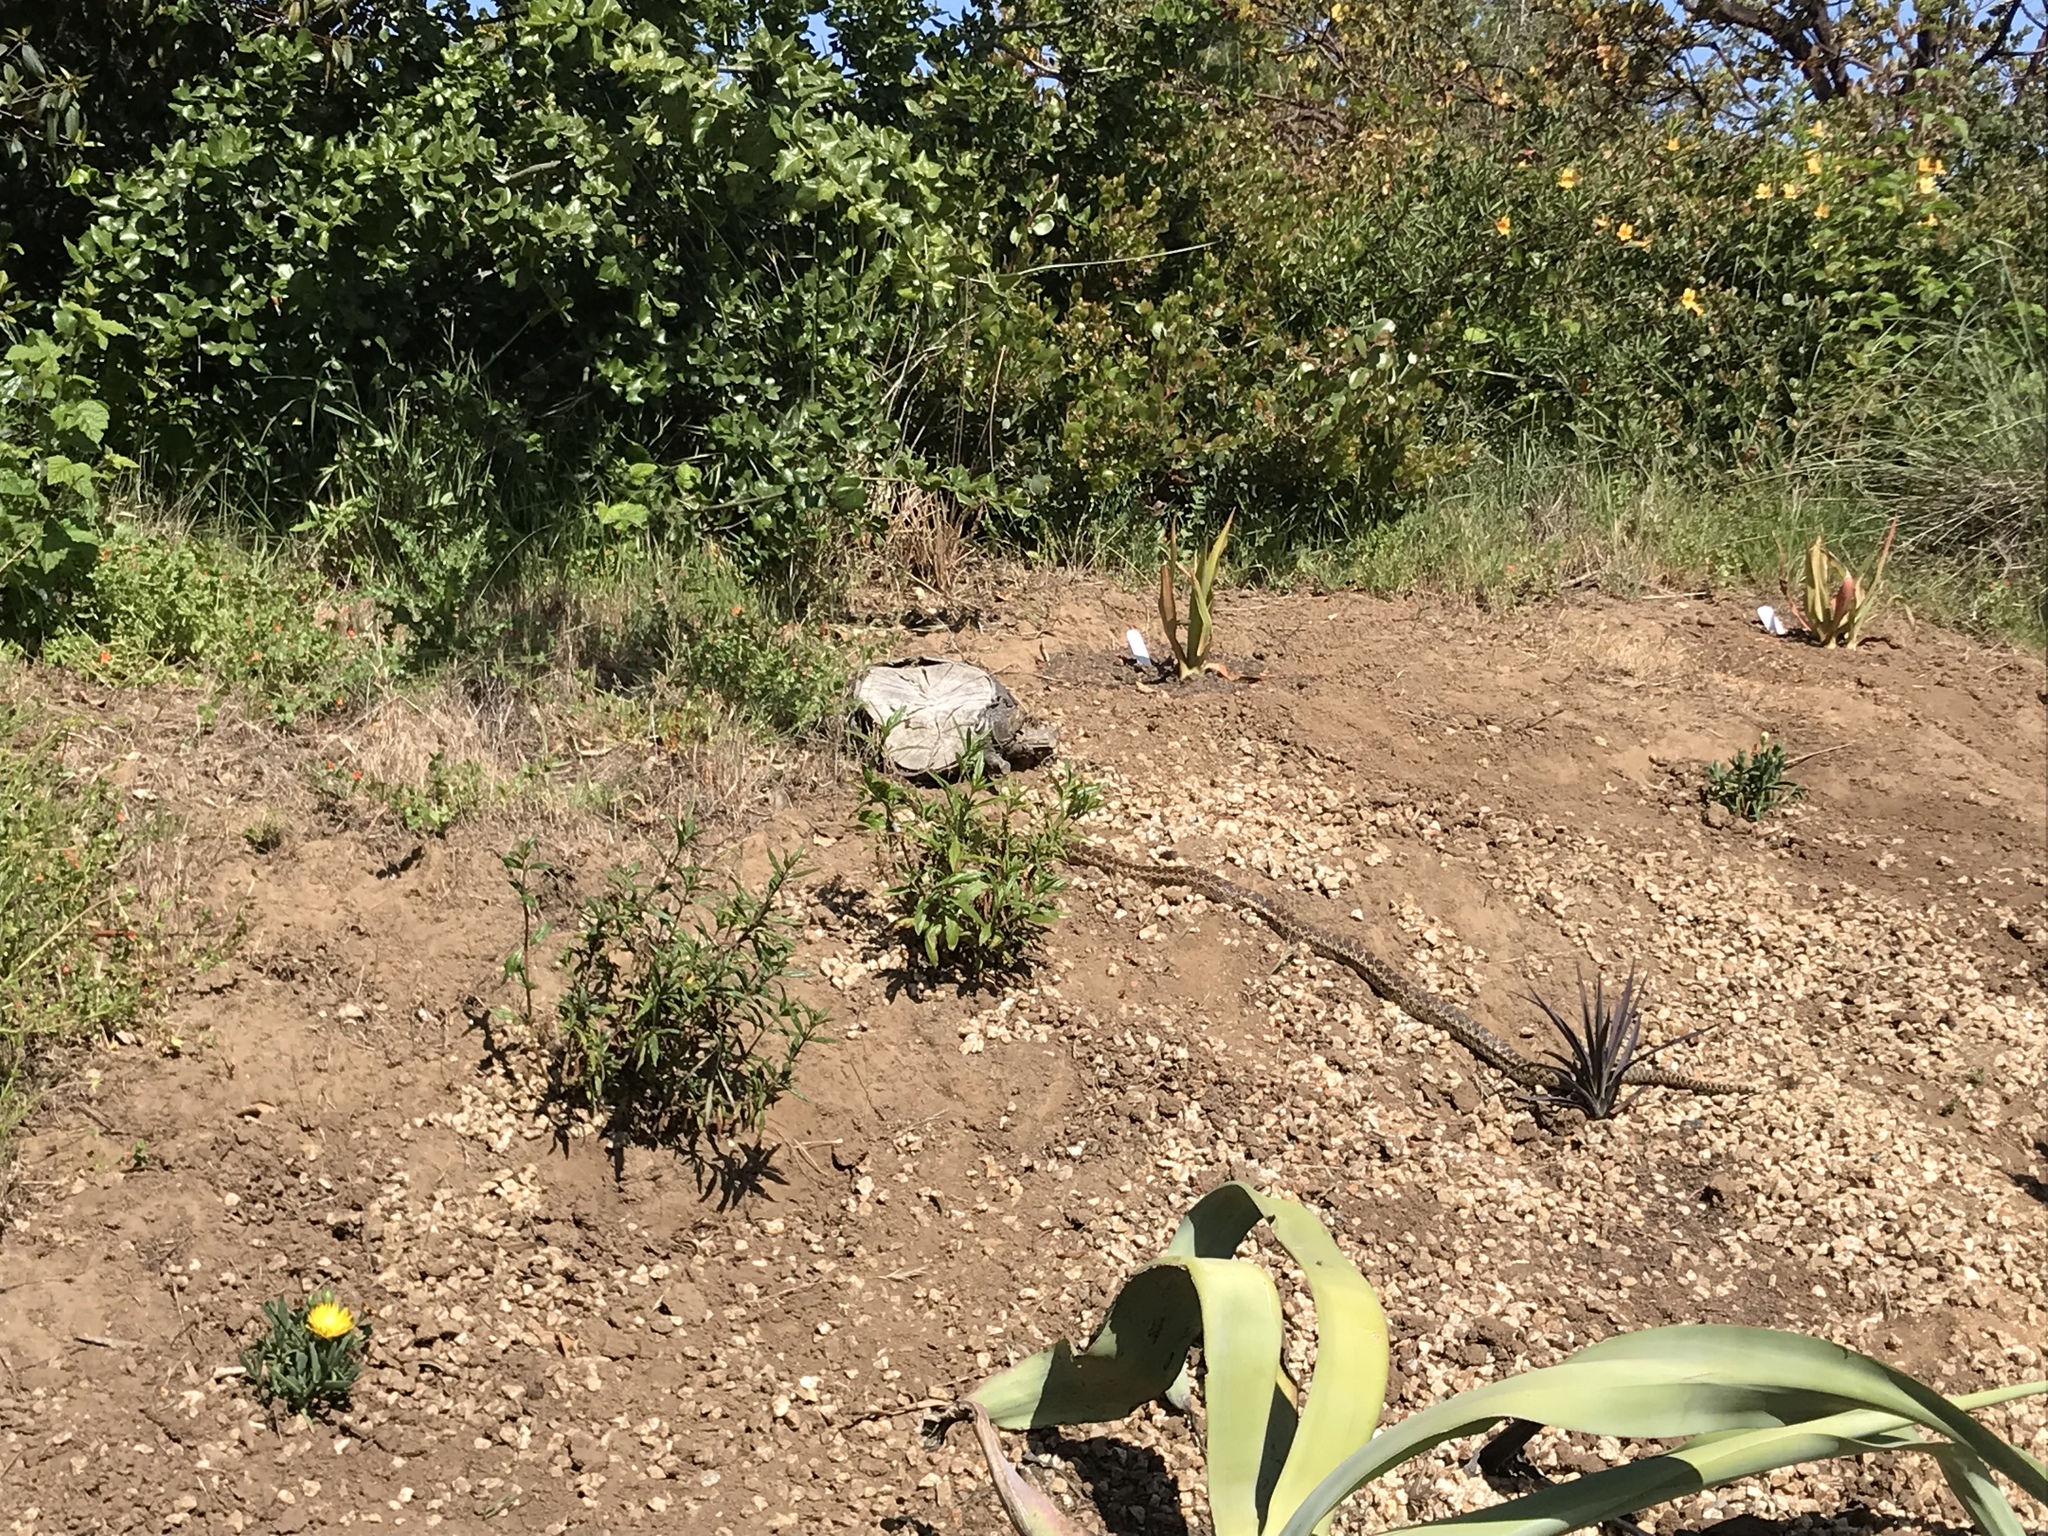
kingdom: Animalia
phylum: Chordata
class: Squamata
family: Colubridae
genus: Pituophis
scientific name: Pituophis catenifer
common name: Gopher snake
